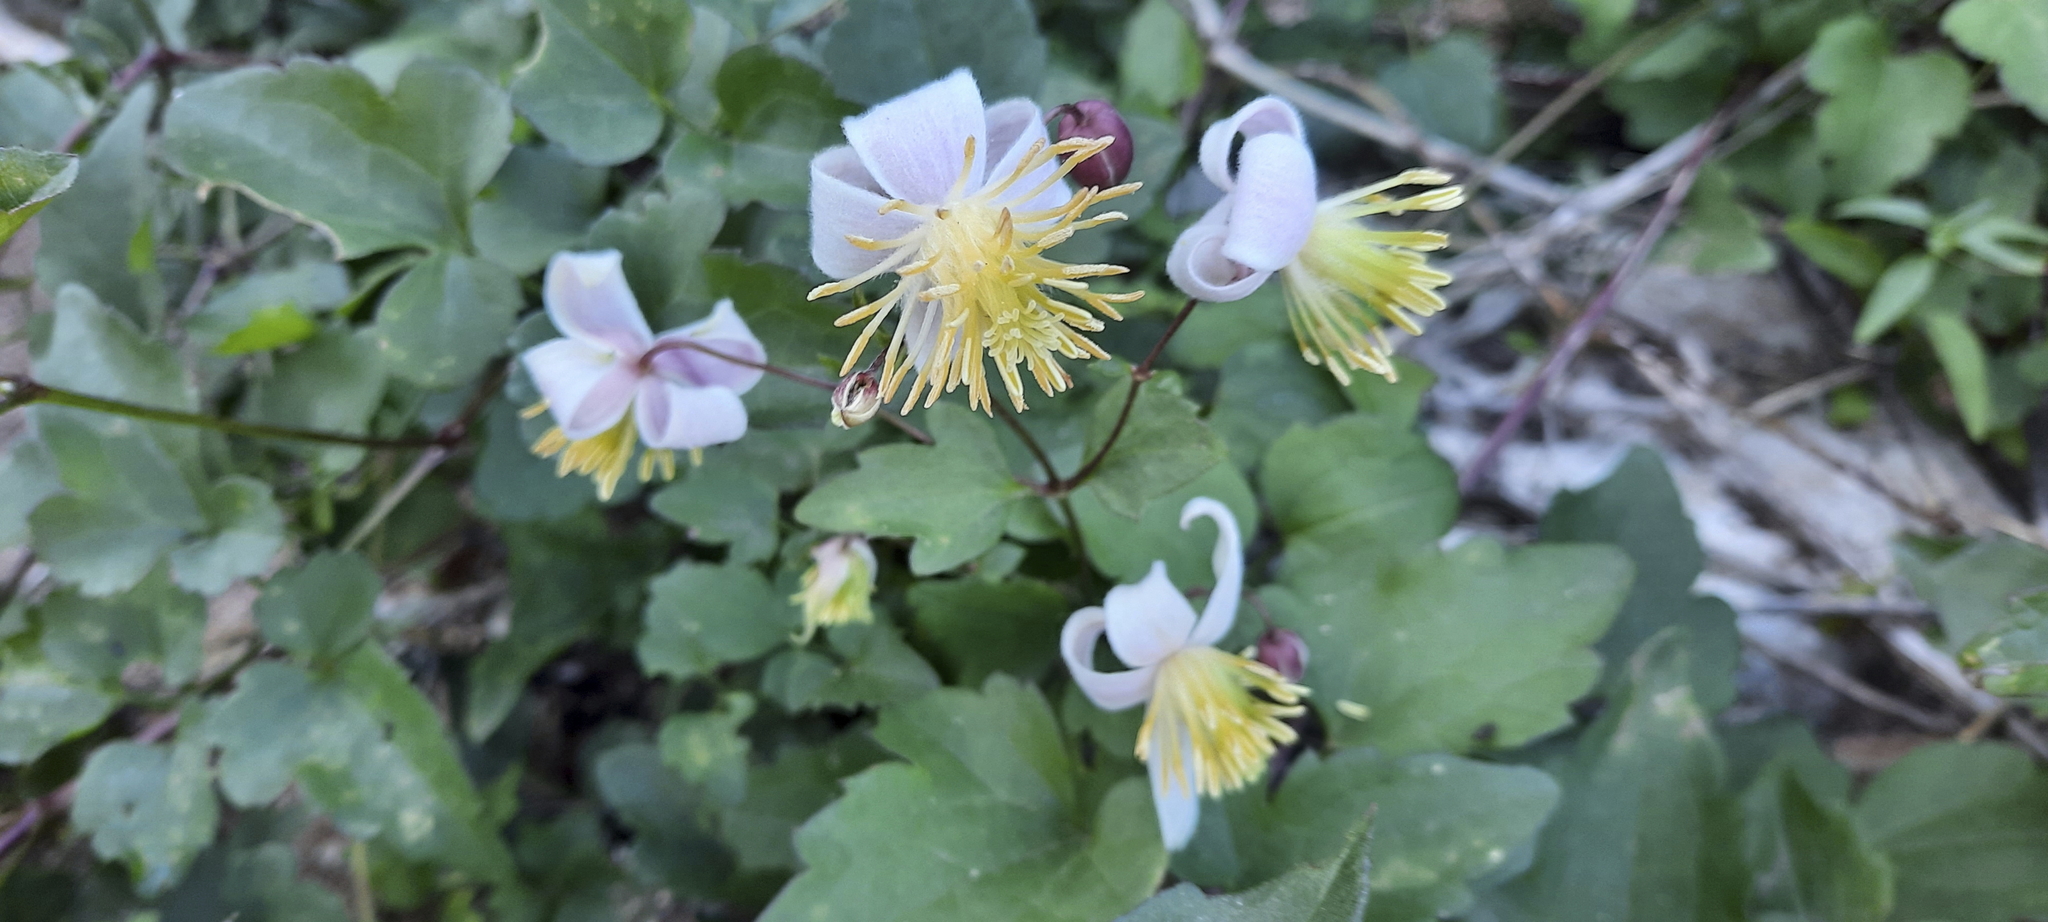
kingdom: Plantae
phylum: Tracheophyta
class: Magnoliopsida
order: Ranunculales
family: Ranunculaceae
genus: Clematis
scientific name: Clematis brachiata
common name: Traveler's-joy
